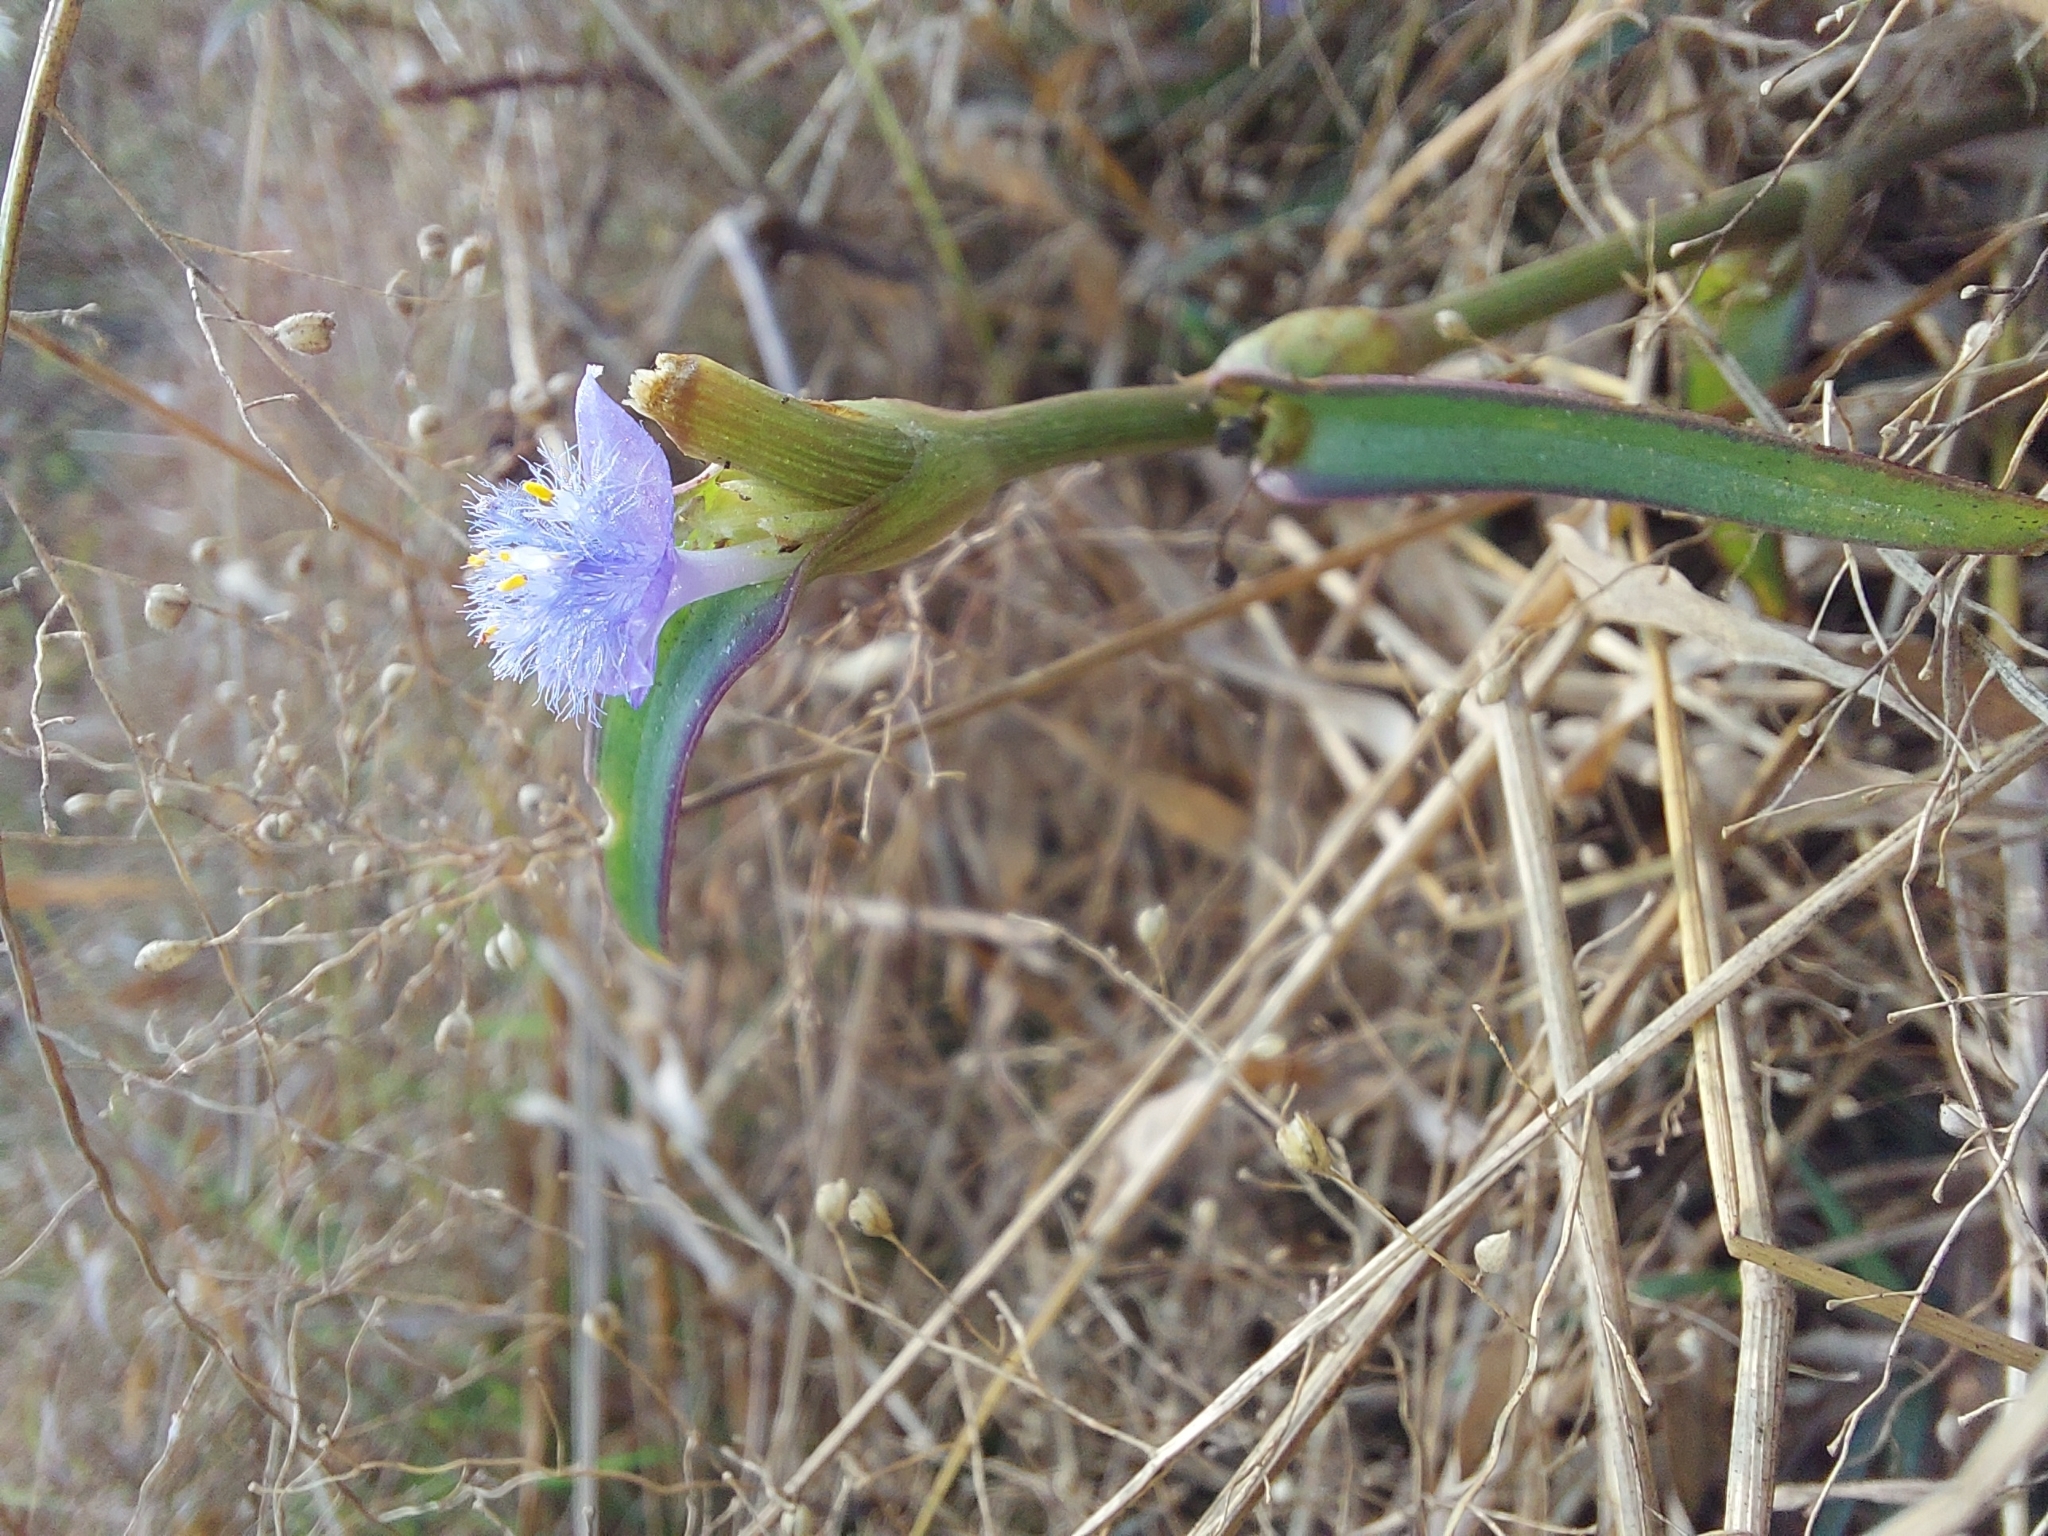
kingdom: Plantae
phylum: Tracheophyta
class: Liliopsida
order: Commelinales
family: Commelinaceae
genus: Cyanotis
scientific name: Cyanotis axillaris
